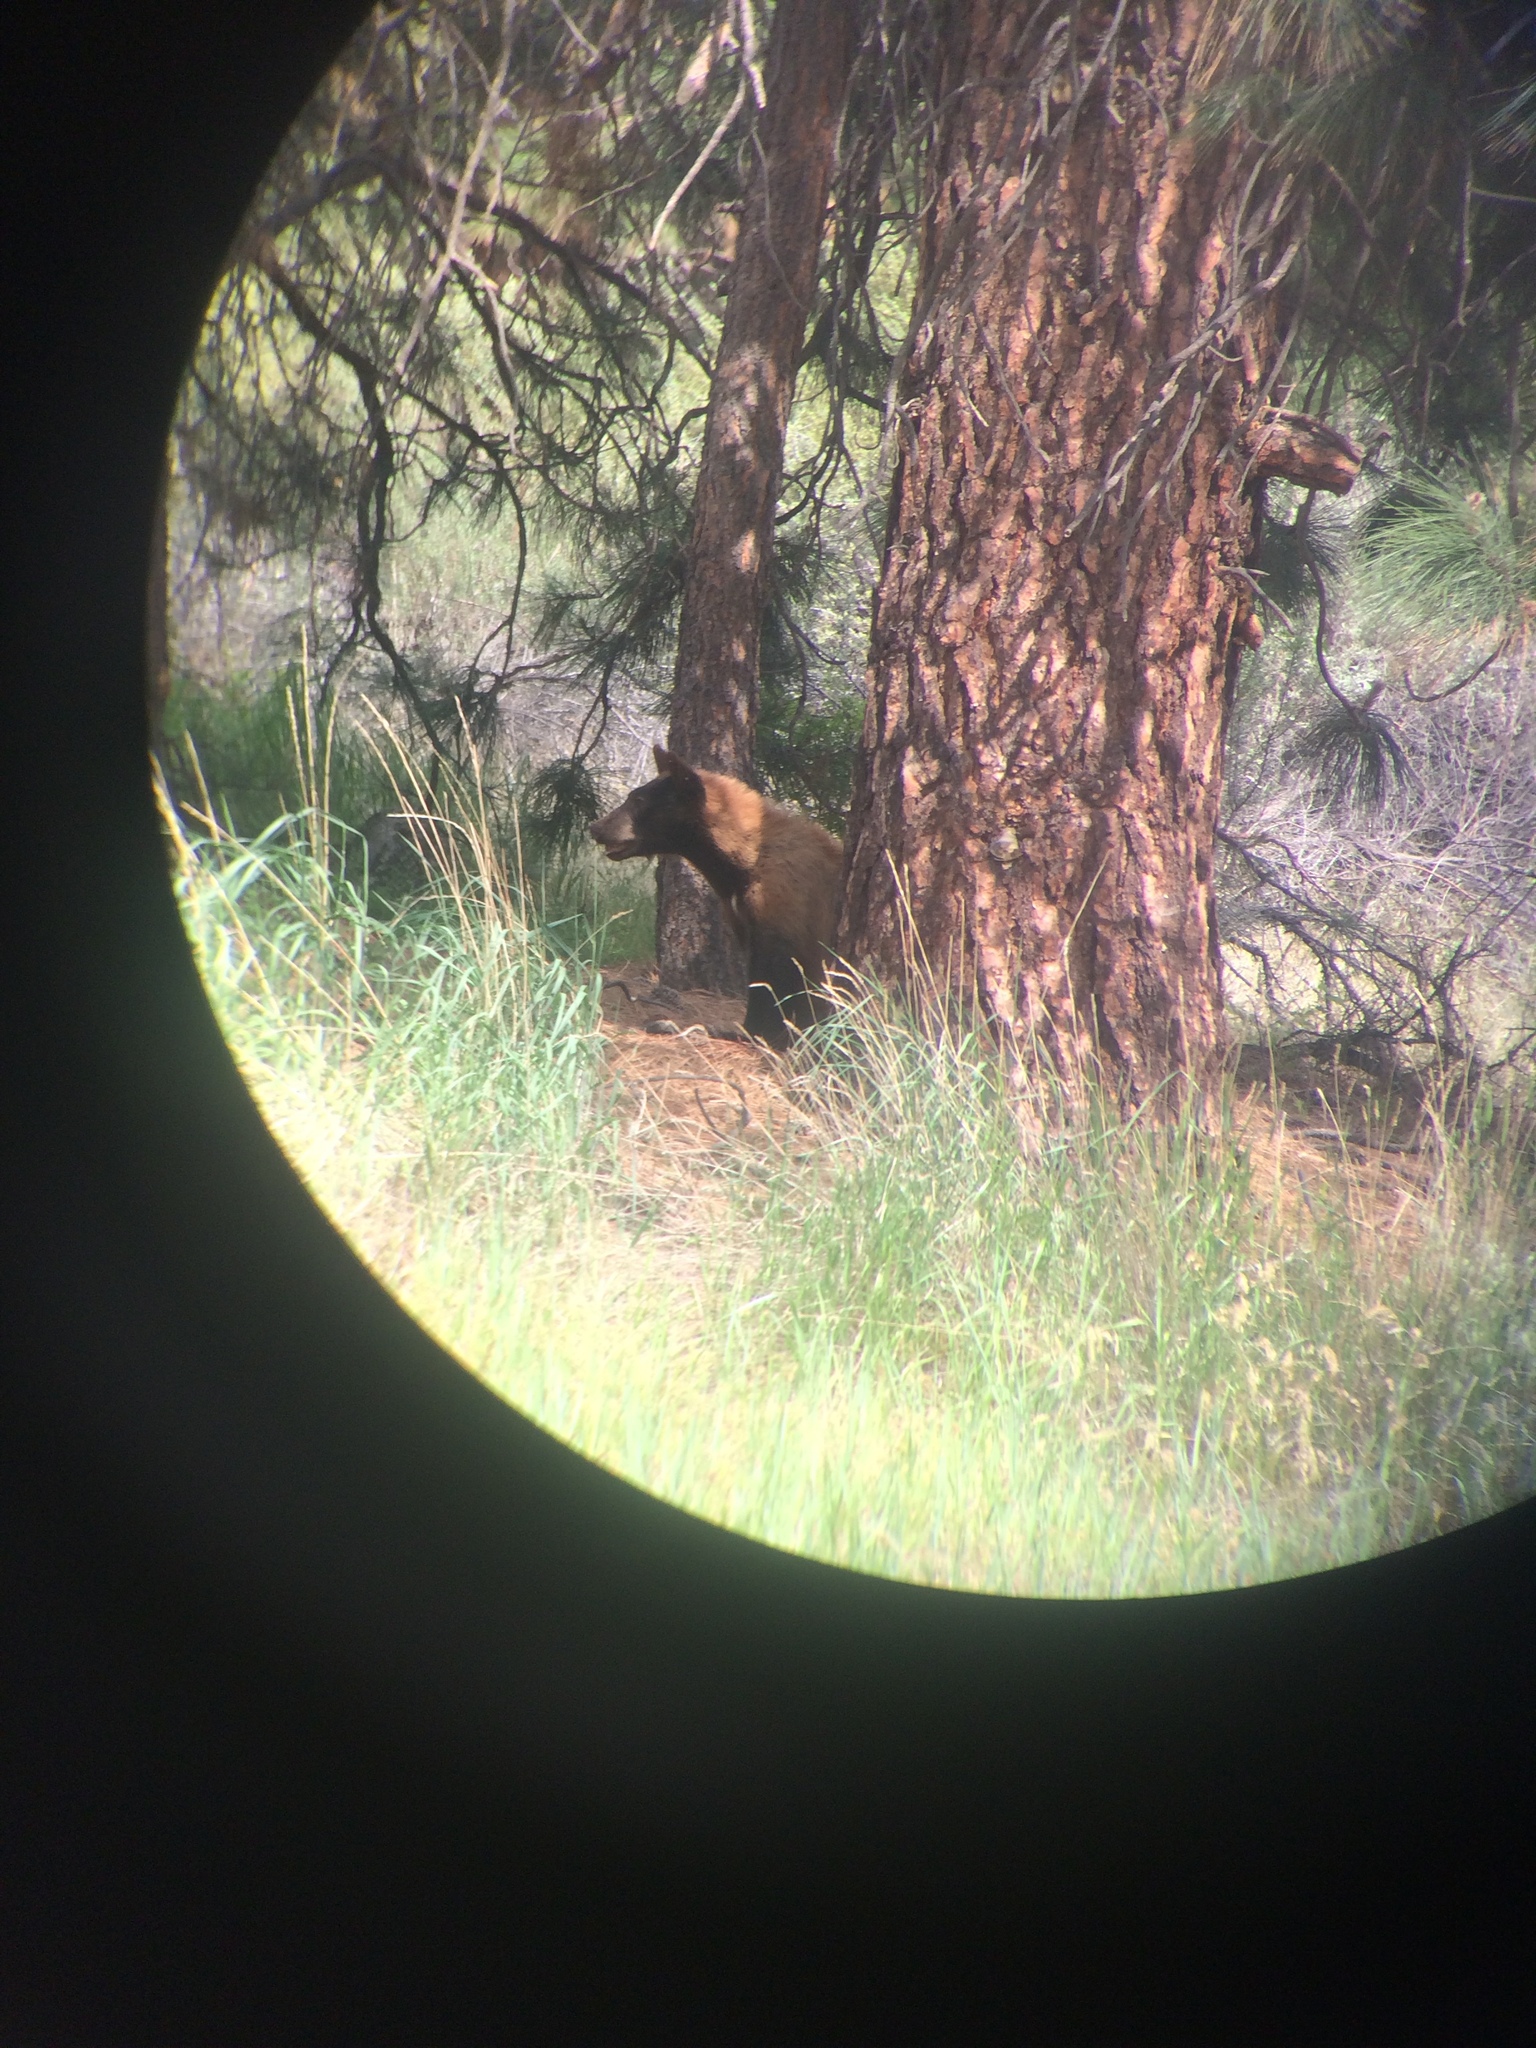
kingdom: Animalia
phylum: Chordata
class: Mammalia
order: Carnivora
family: Ursidae
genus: Ursus
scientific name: Ursus americanus
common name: American black bear
